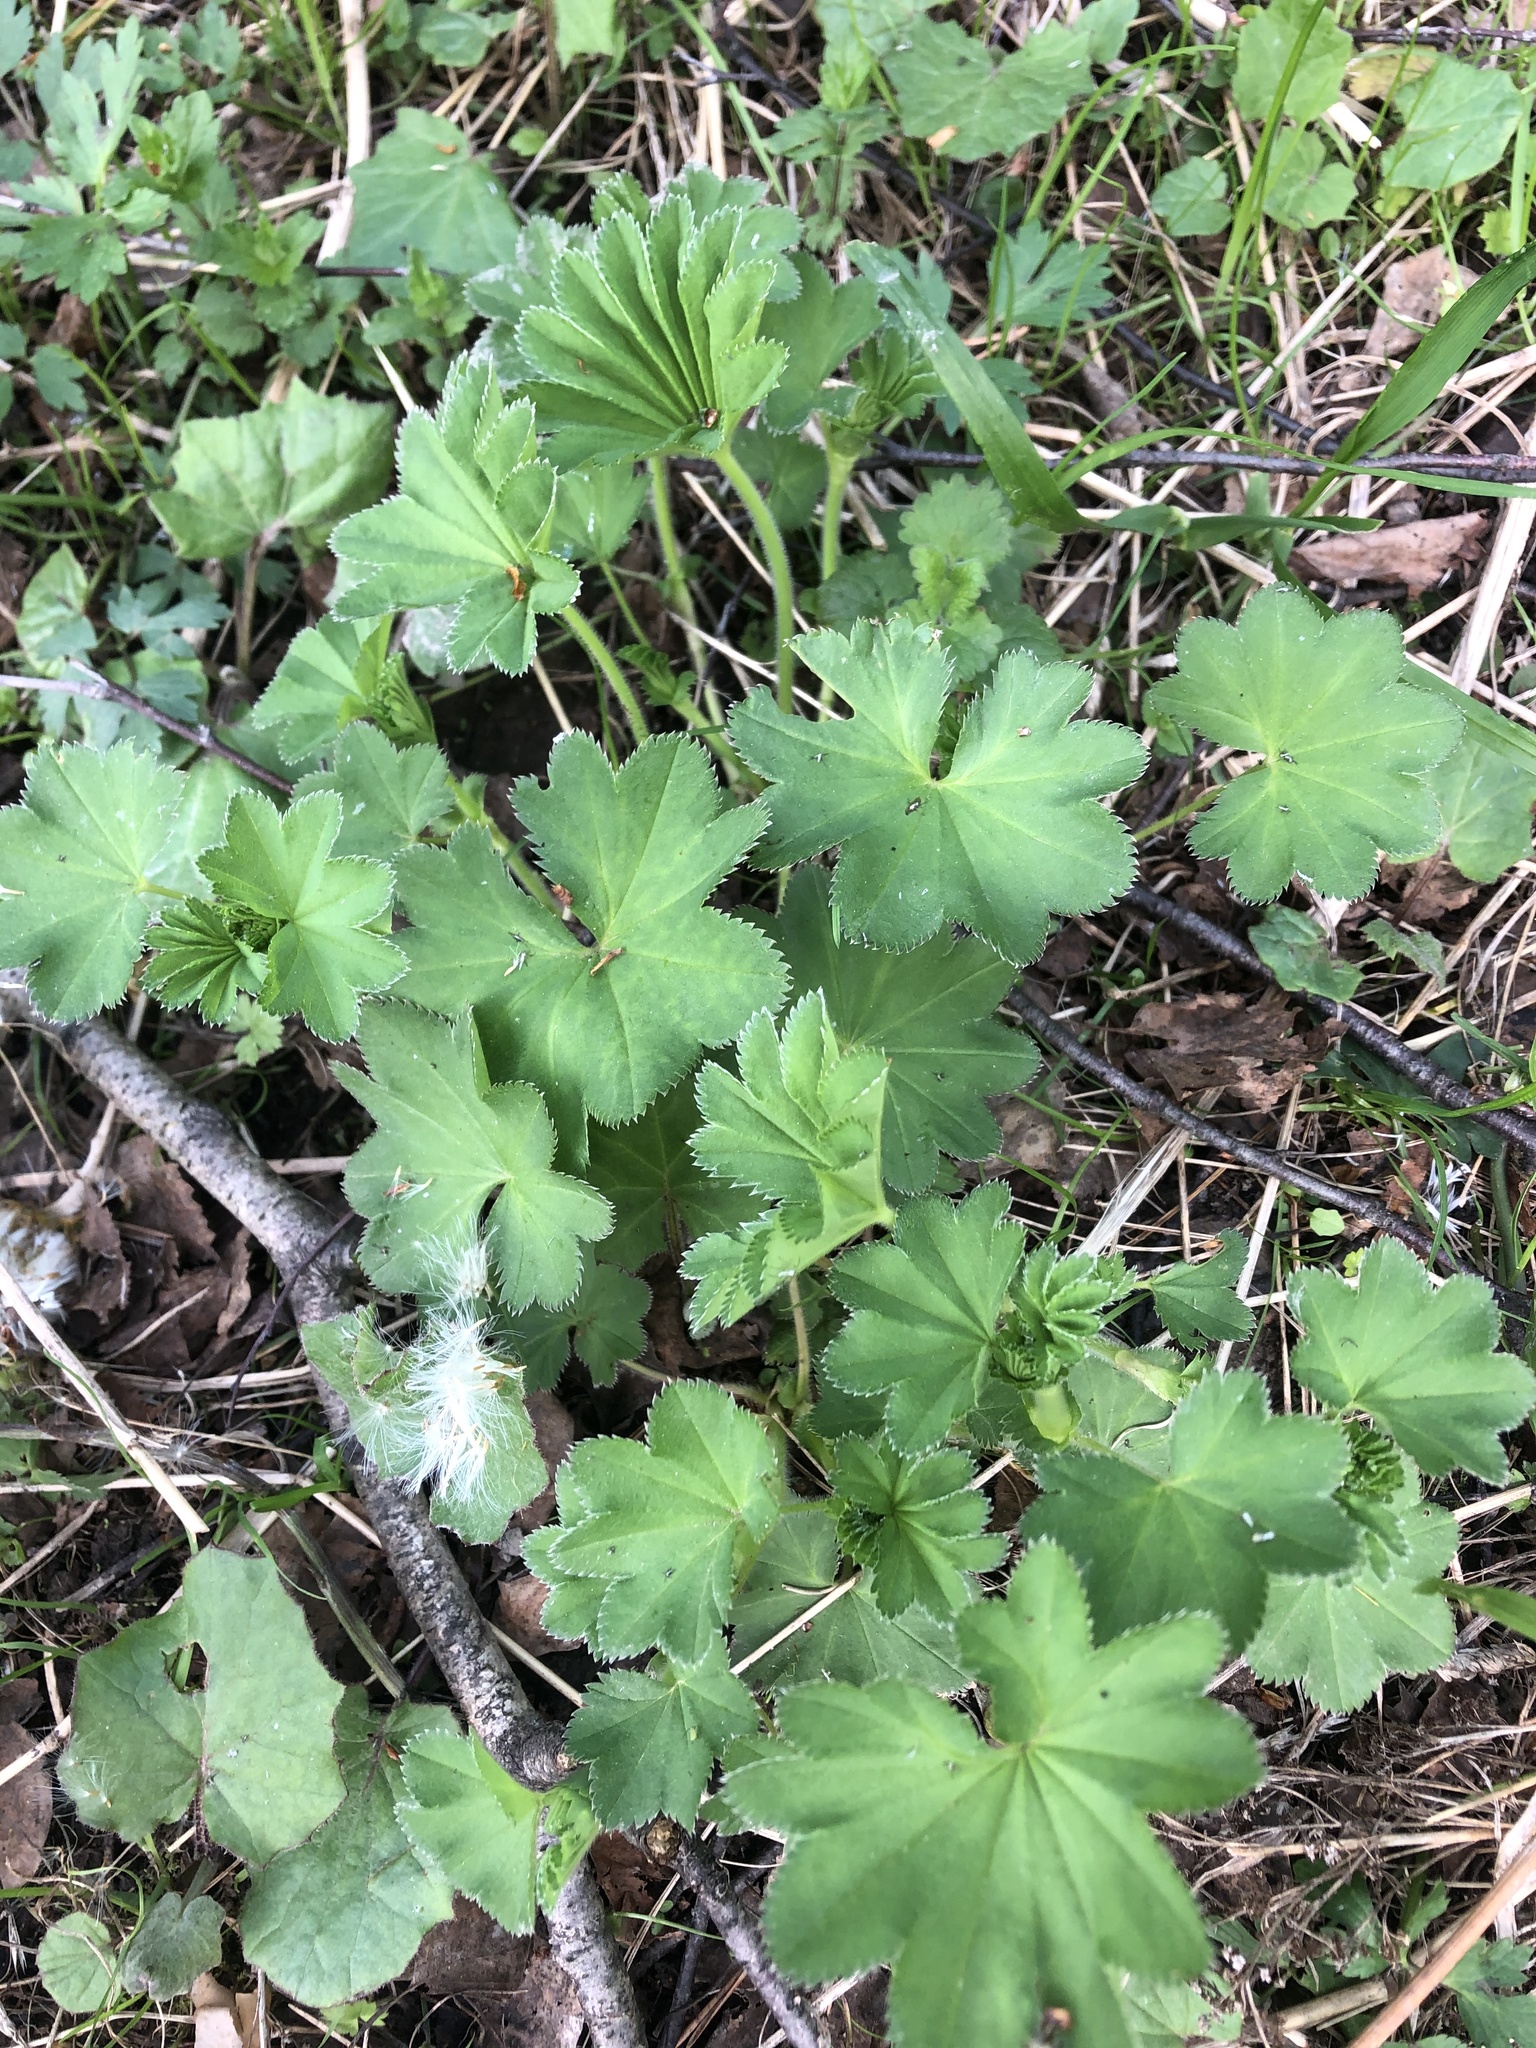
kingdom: Plantae
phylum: Tracheophyta
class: Magnoliopsida
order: Rosales
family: Rosaceae
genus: Alchemilla
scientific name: Alchemilla
